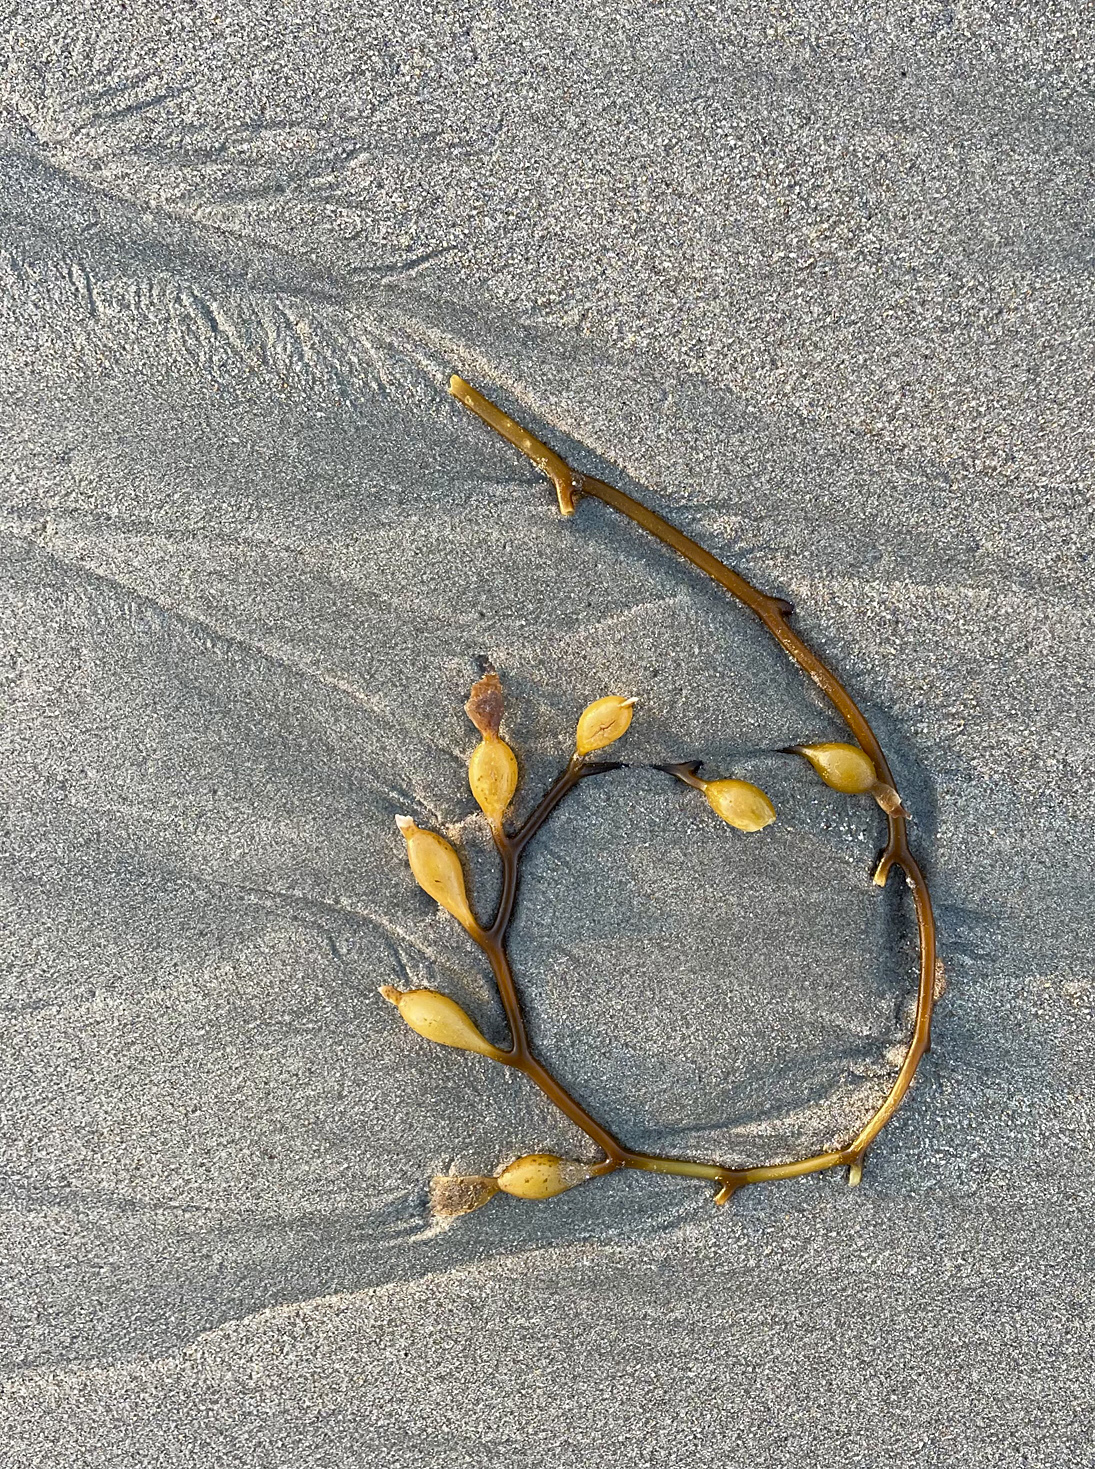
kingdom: Chromista
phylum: Ochrophyta
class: Phaeophyceae
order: Laminariales
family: Laminariaceae
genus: Macrocystis
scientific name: Macrocystis pyrifera
